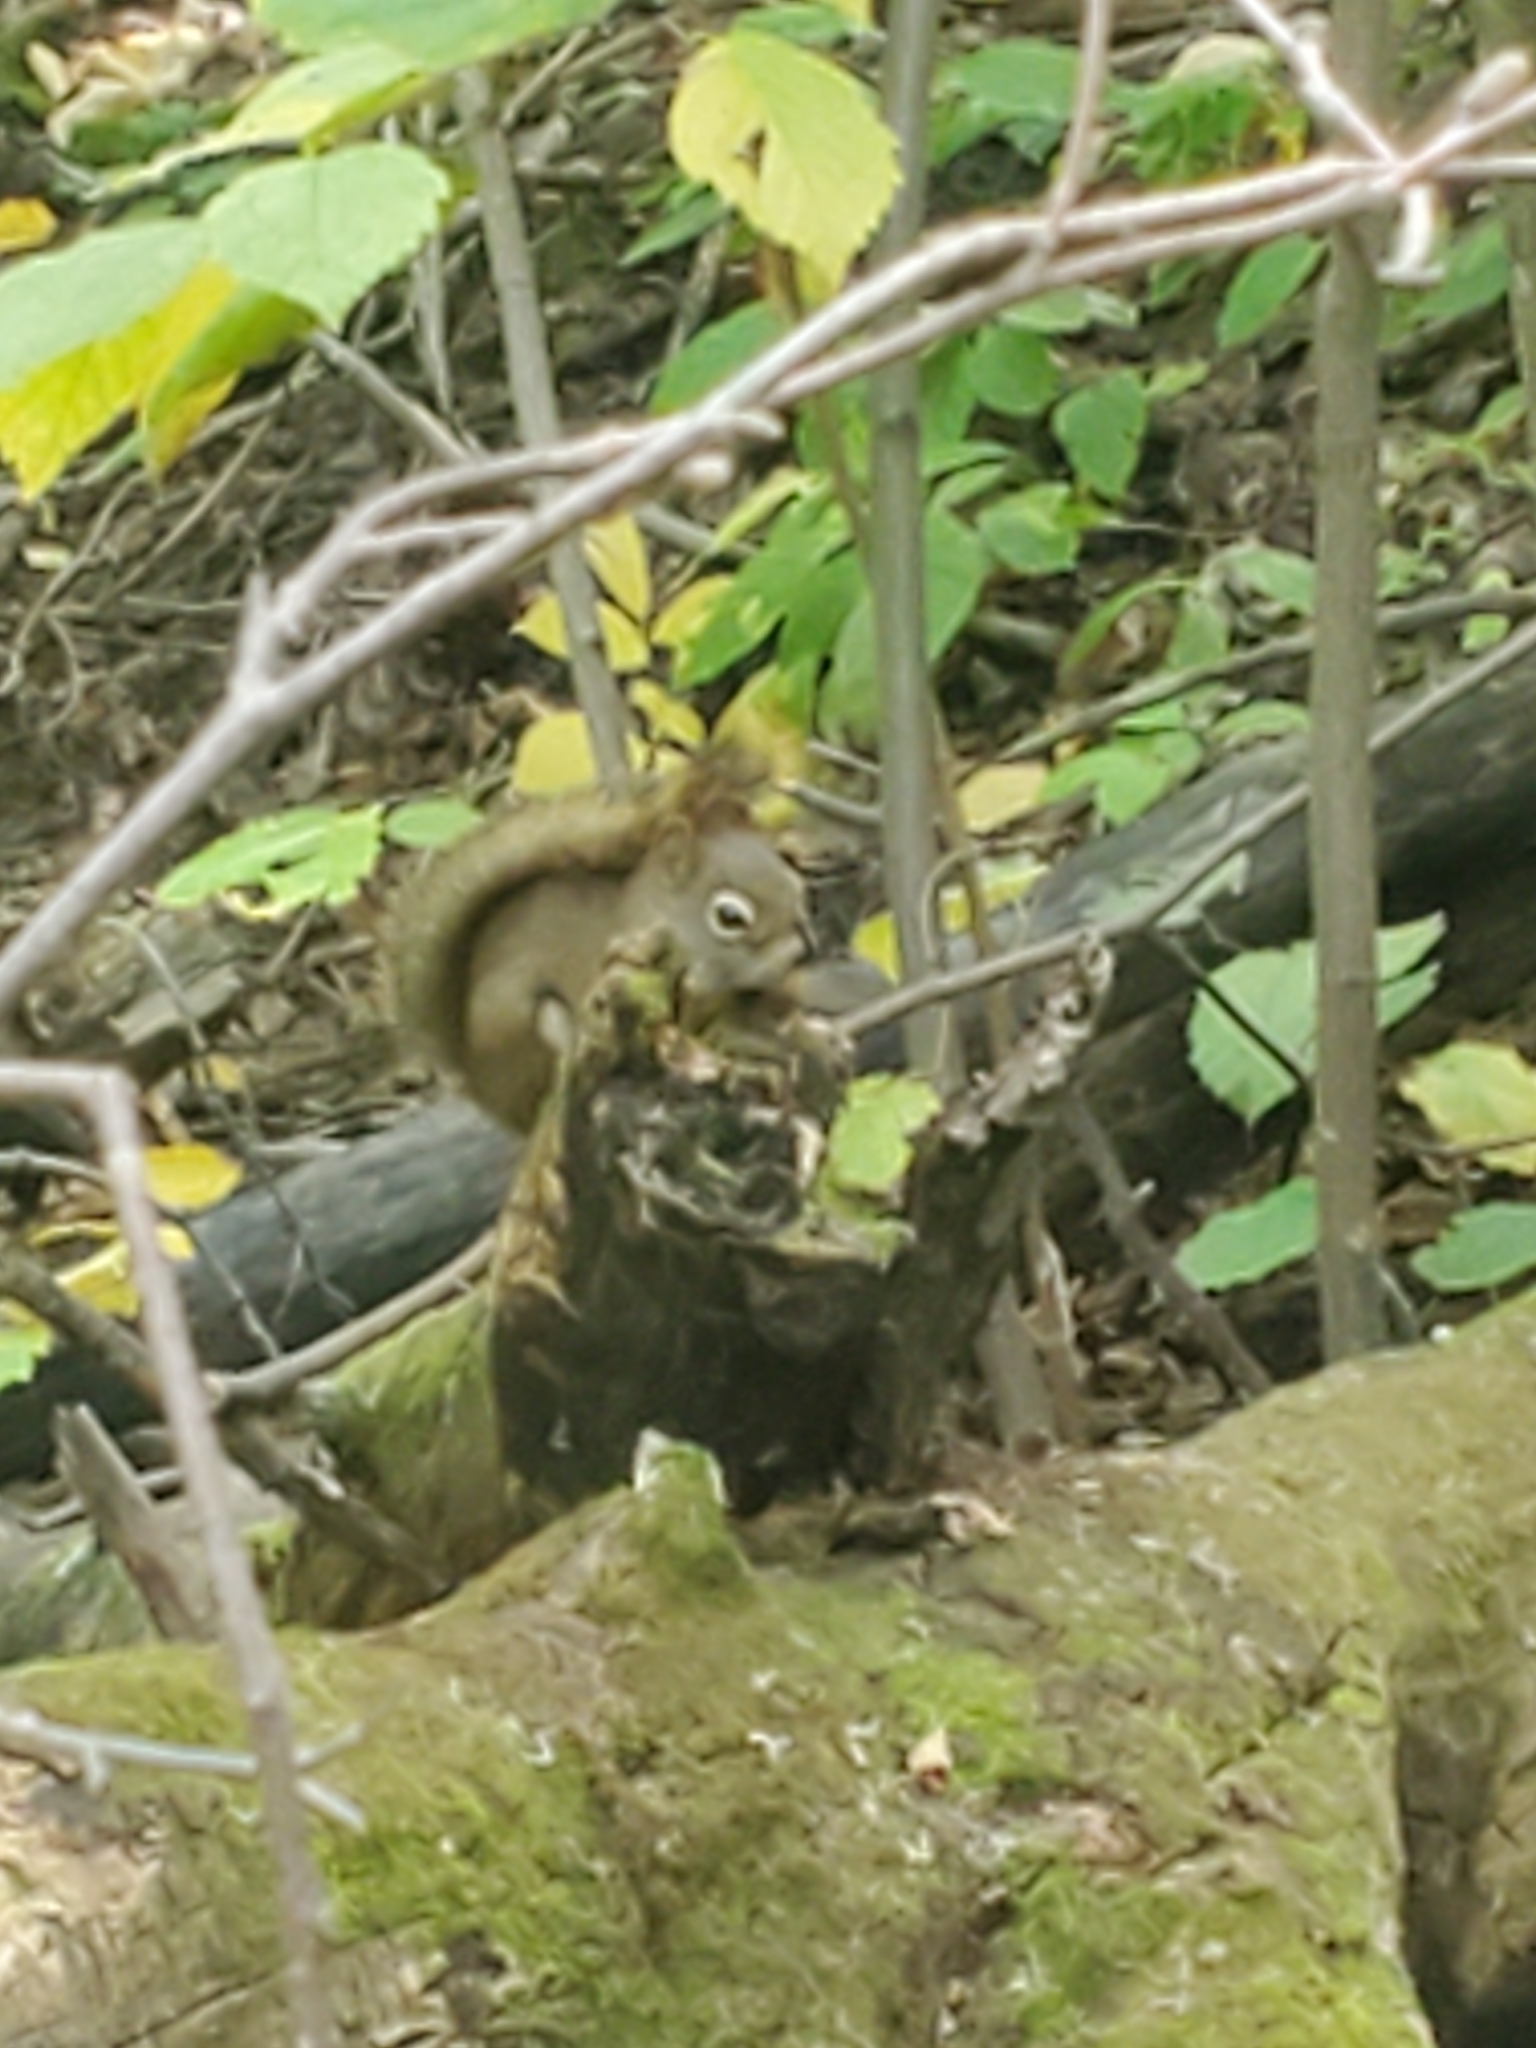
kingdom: Animalia
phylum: Chordata
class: Mammalia
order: Rodentia
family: Sciuridae
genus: Tamiasciurus
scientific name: Tamiasciurus hudsonicus
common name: Red squirrel
